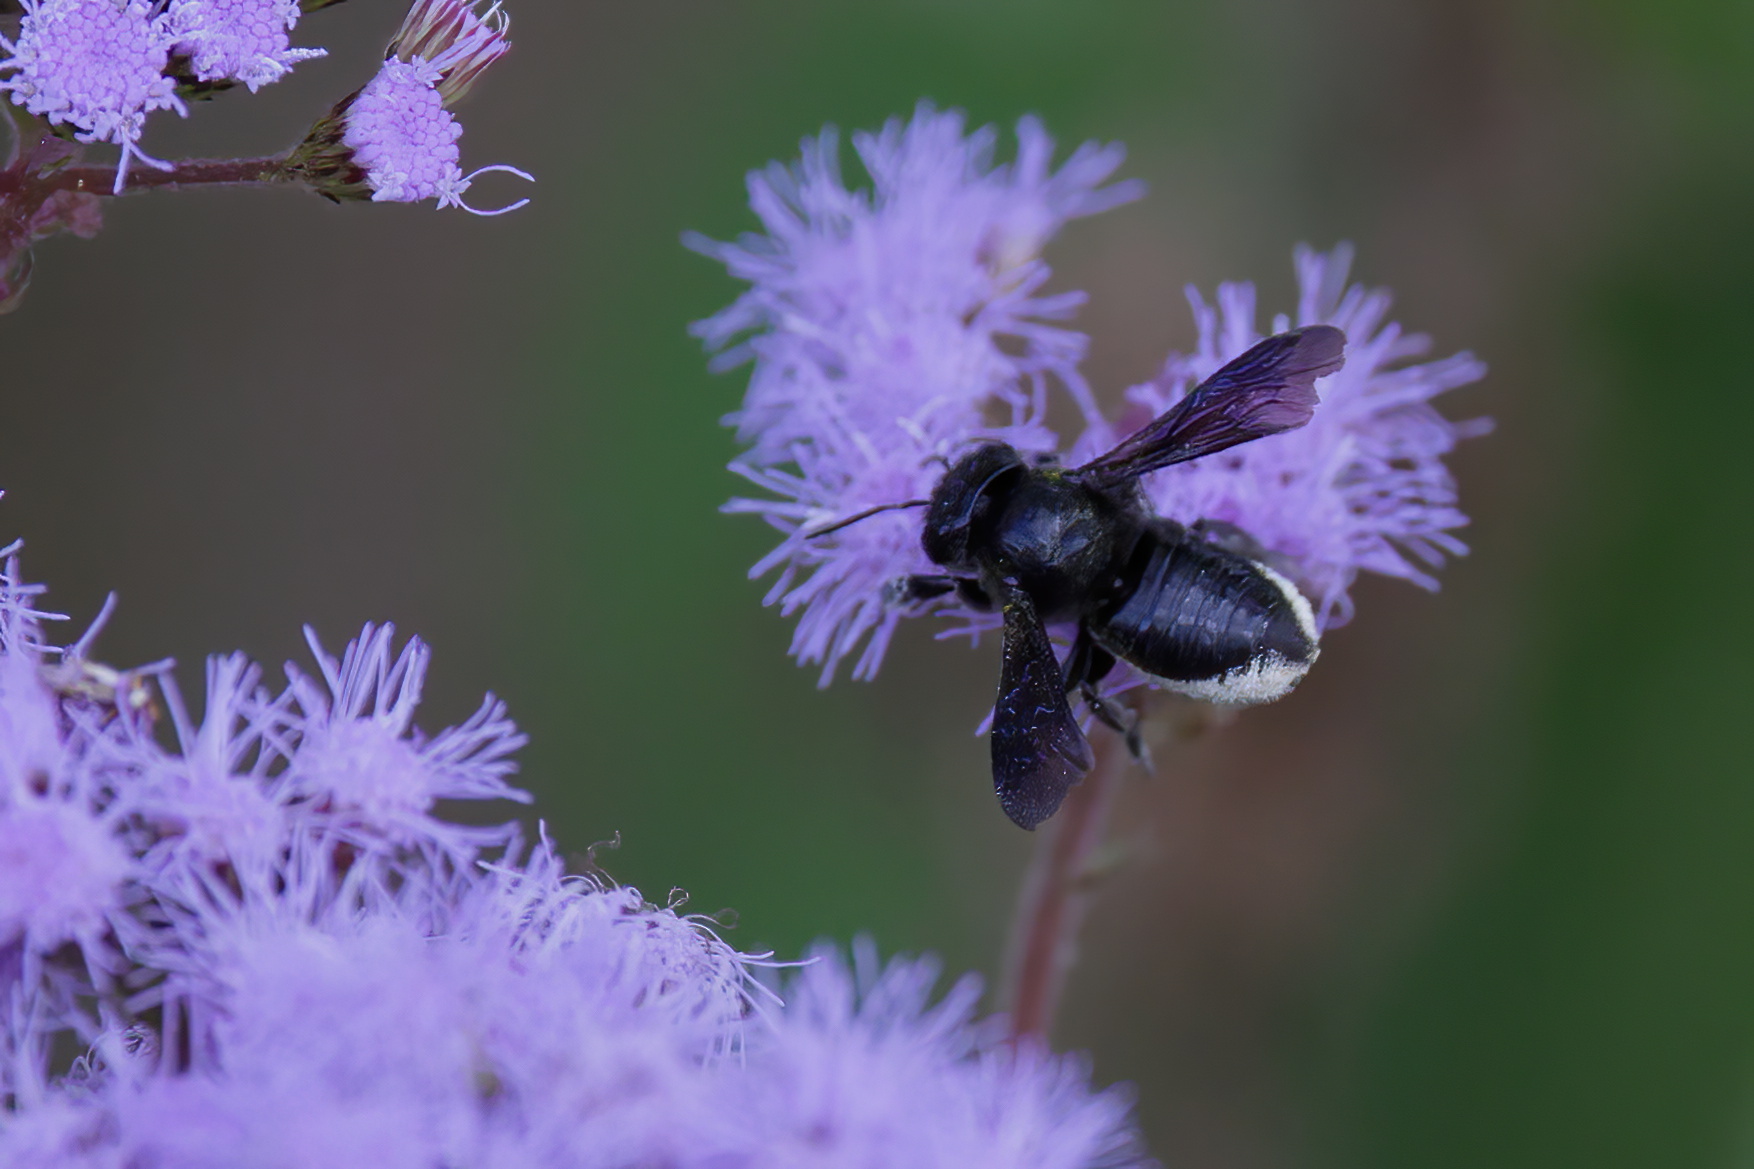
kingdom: Animalia
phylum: Arthropoda
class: Insecta
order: Hymenoptera
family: Megachilidae
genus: Megachile
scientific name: Megachile xylocopoides
